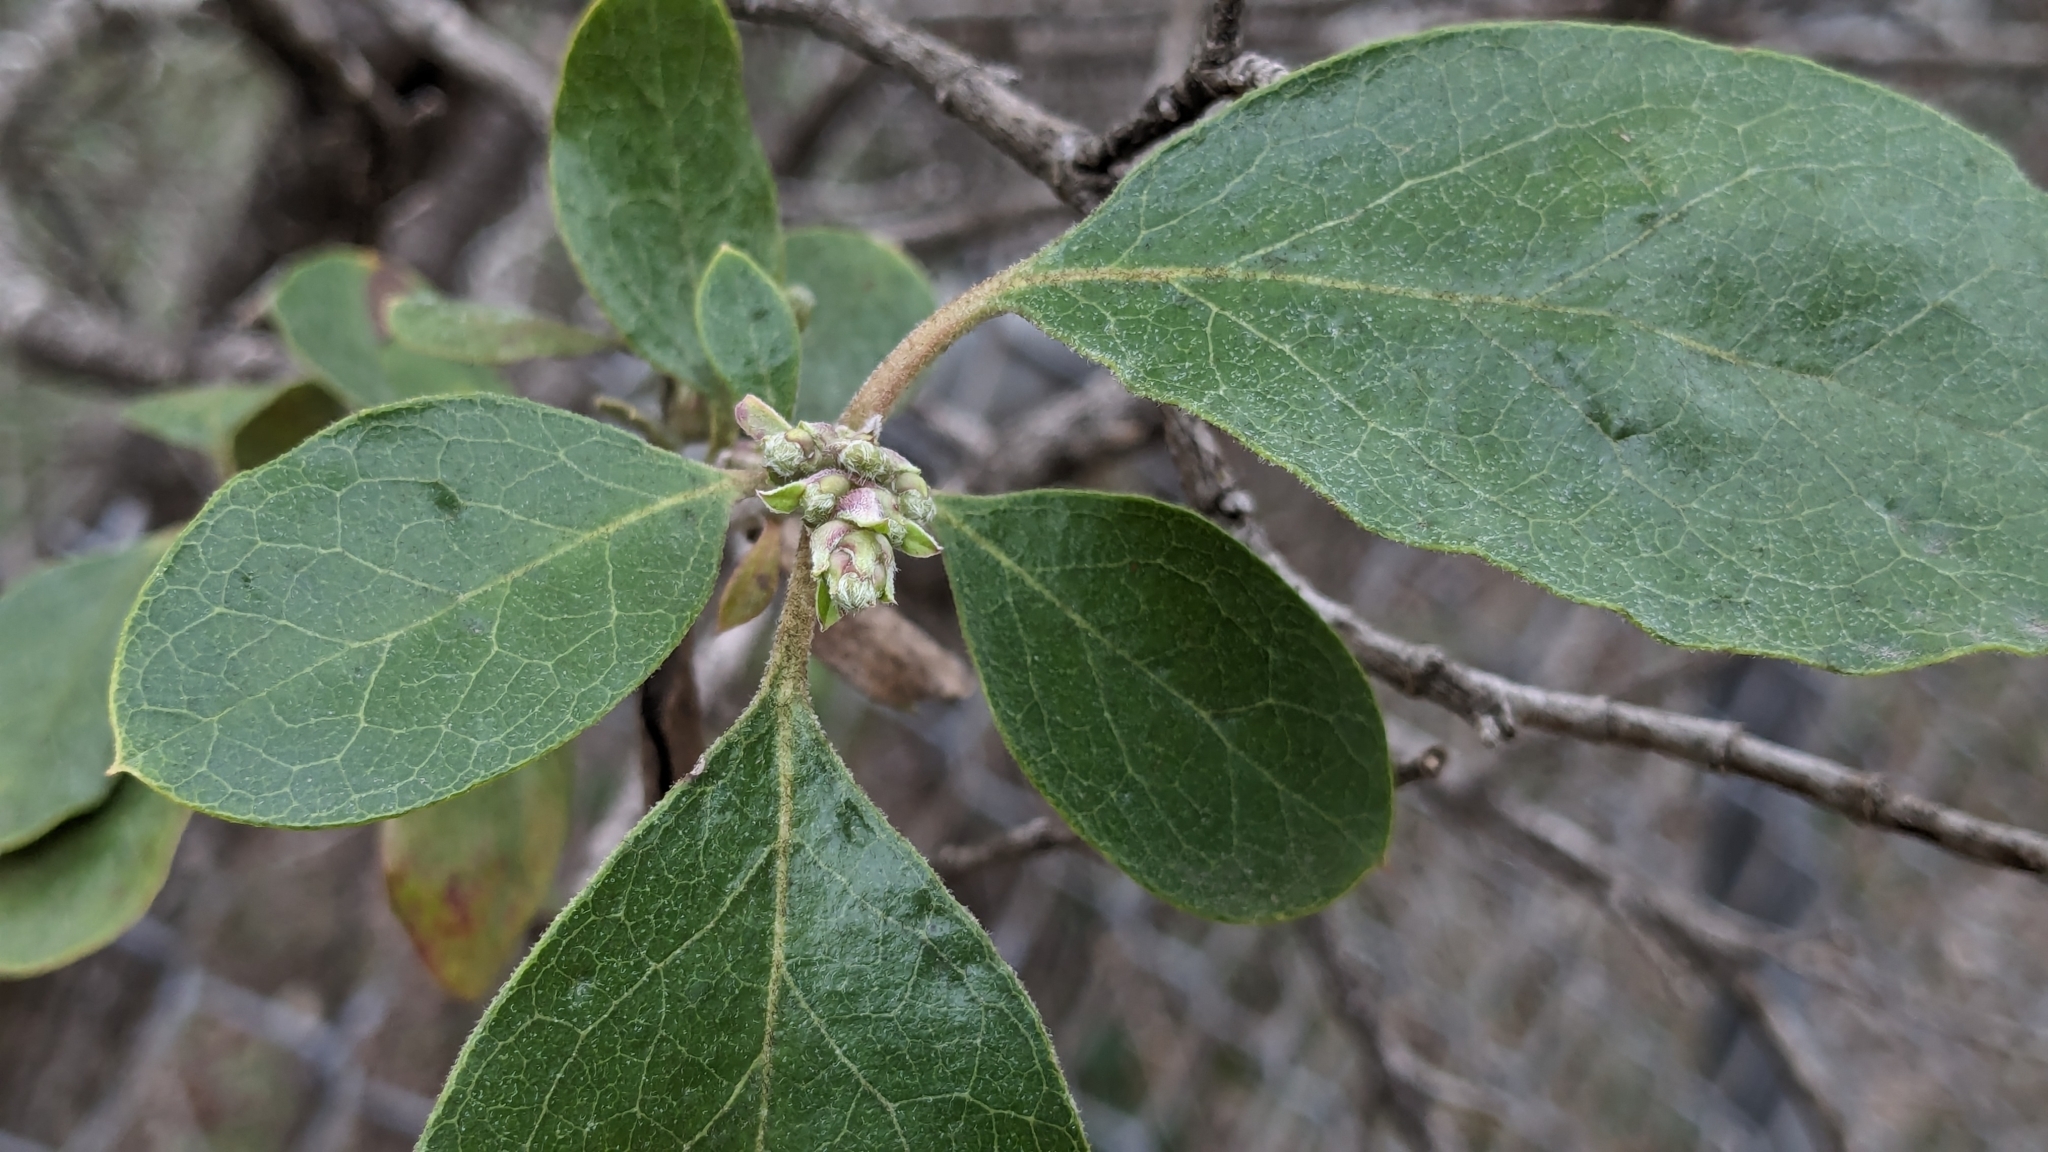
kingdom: Plantae
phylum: Tracheophyta
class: Magnoliopsida
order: Garryales
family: Garryaceae
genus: Garrya
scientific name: Garrya lindheimeri
